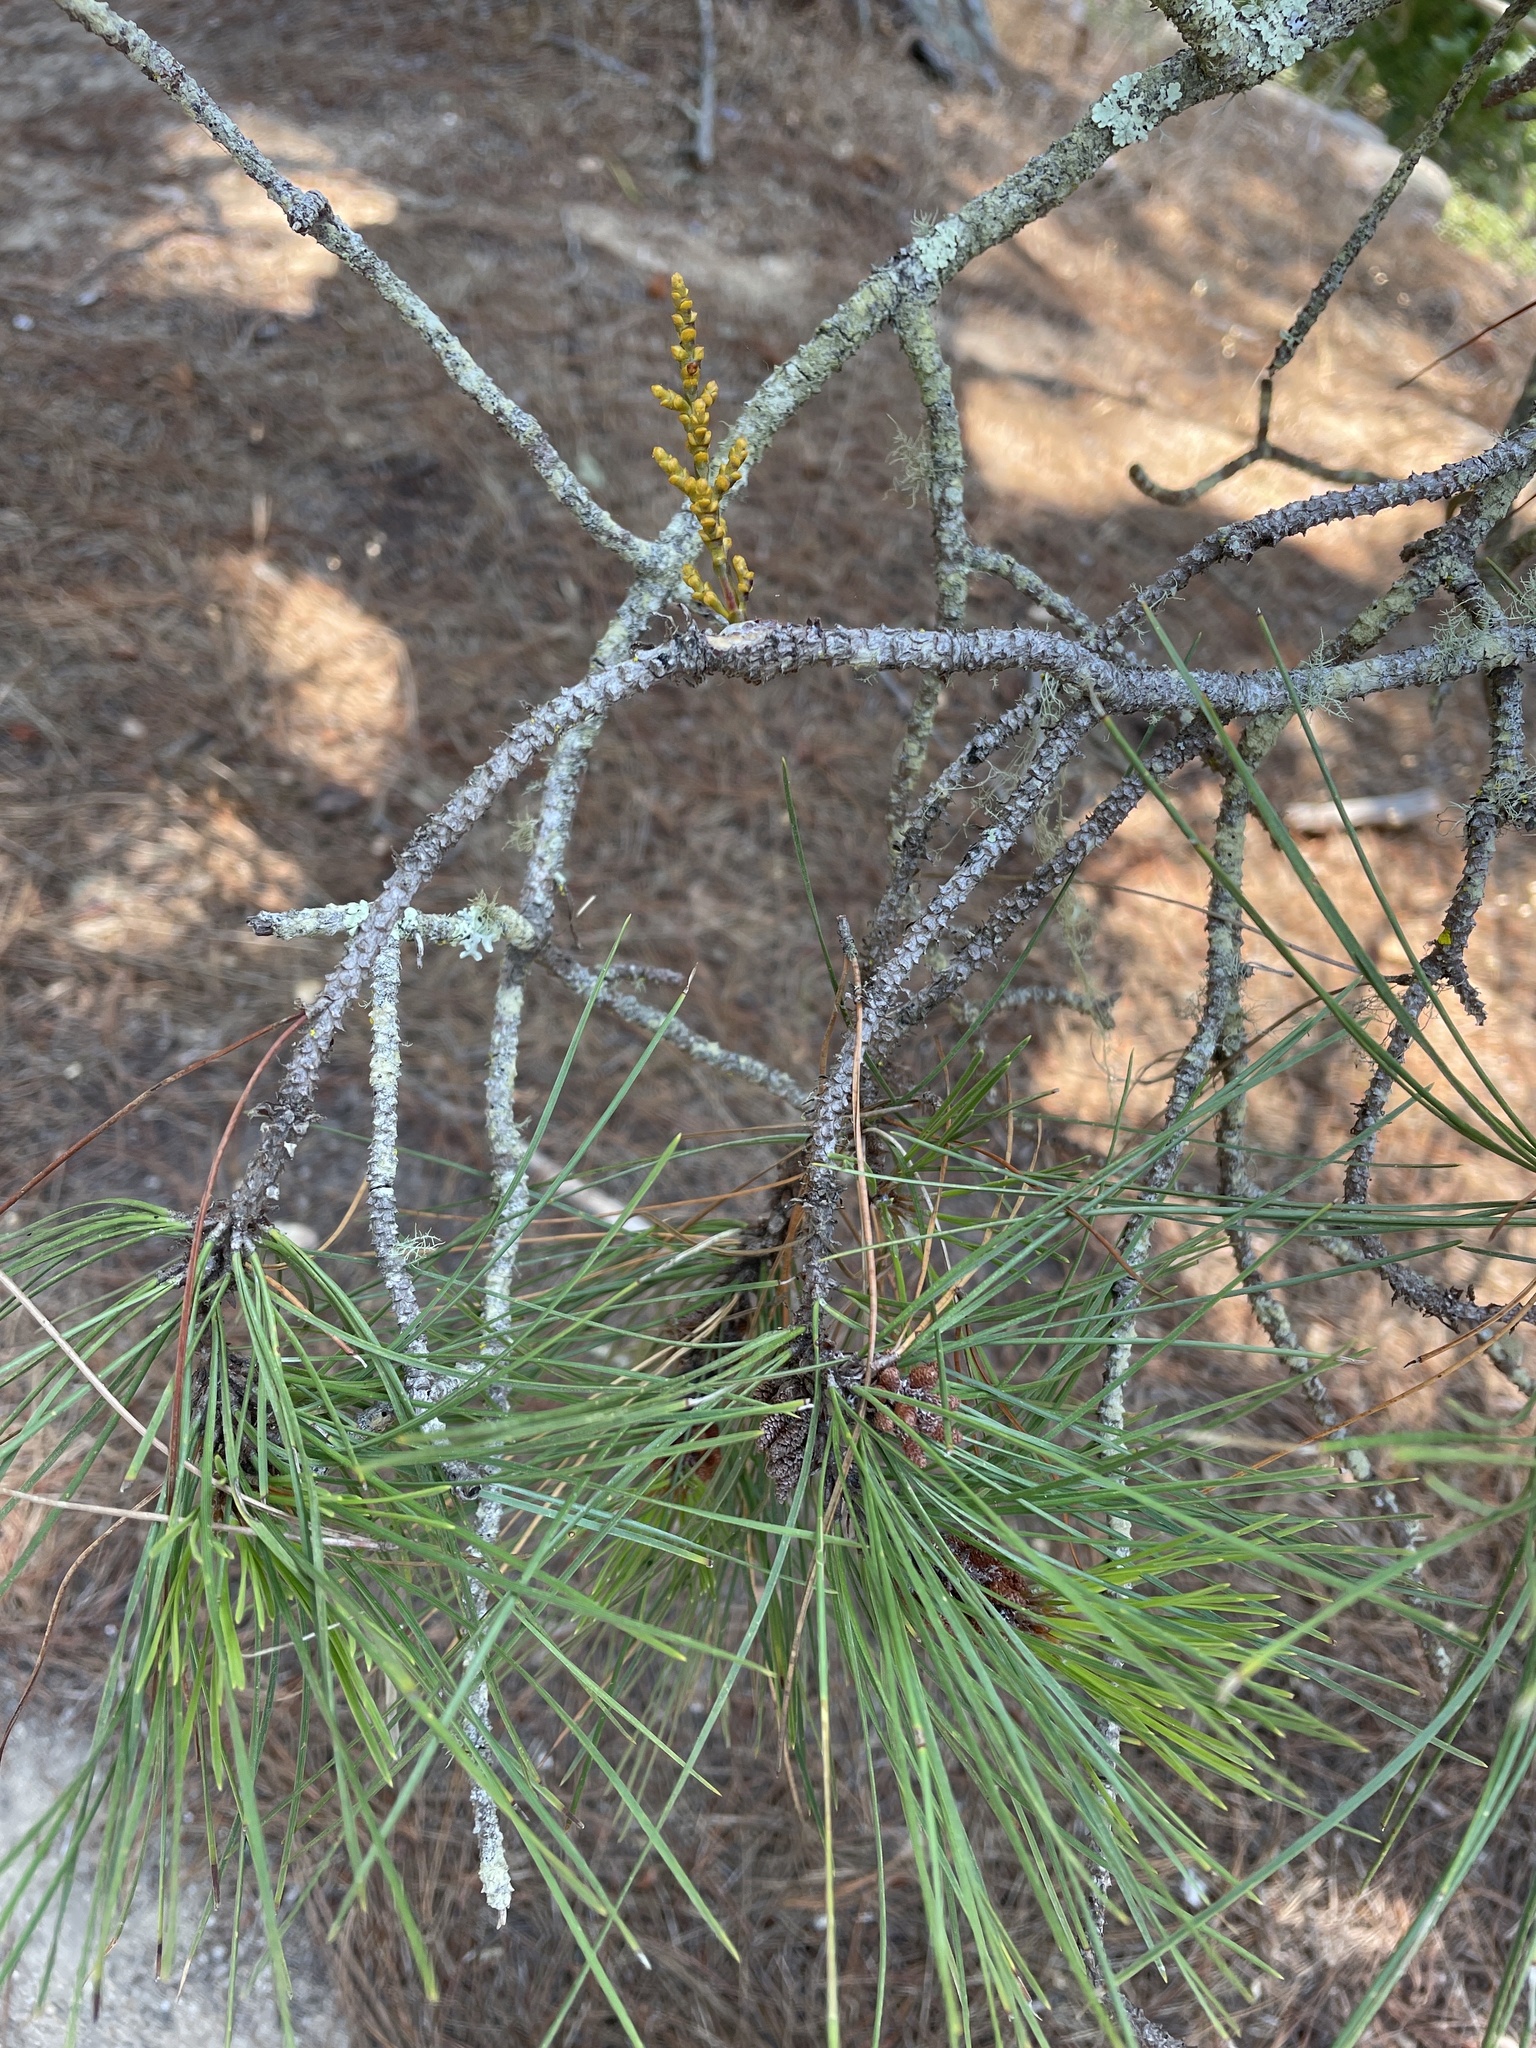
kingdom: Plantae
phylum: Tracheophyta
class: Magnoliopsida
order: Santalales
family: Viscaceae
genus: Arceuthobium
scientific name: Arceuthobium campylopodum
